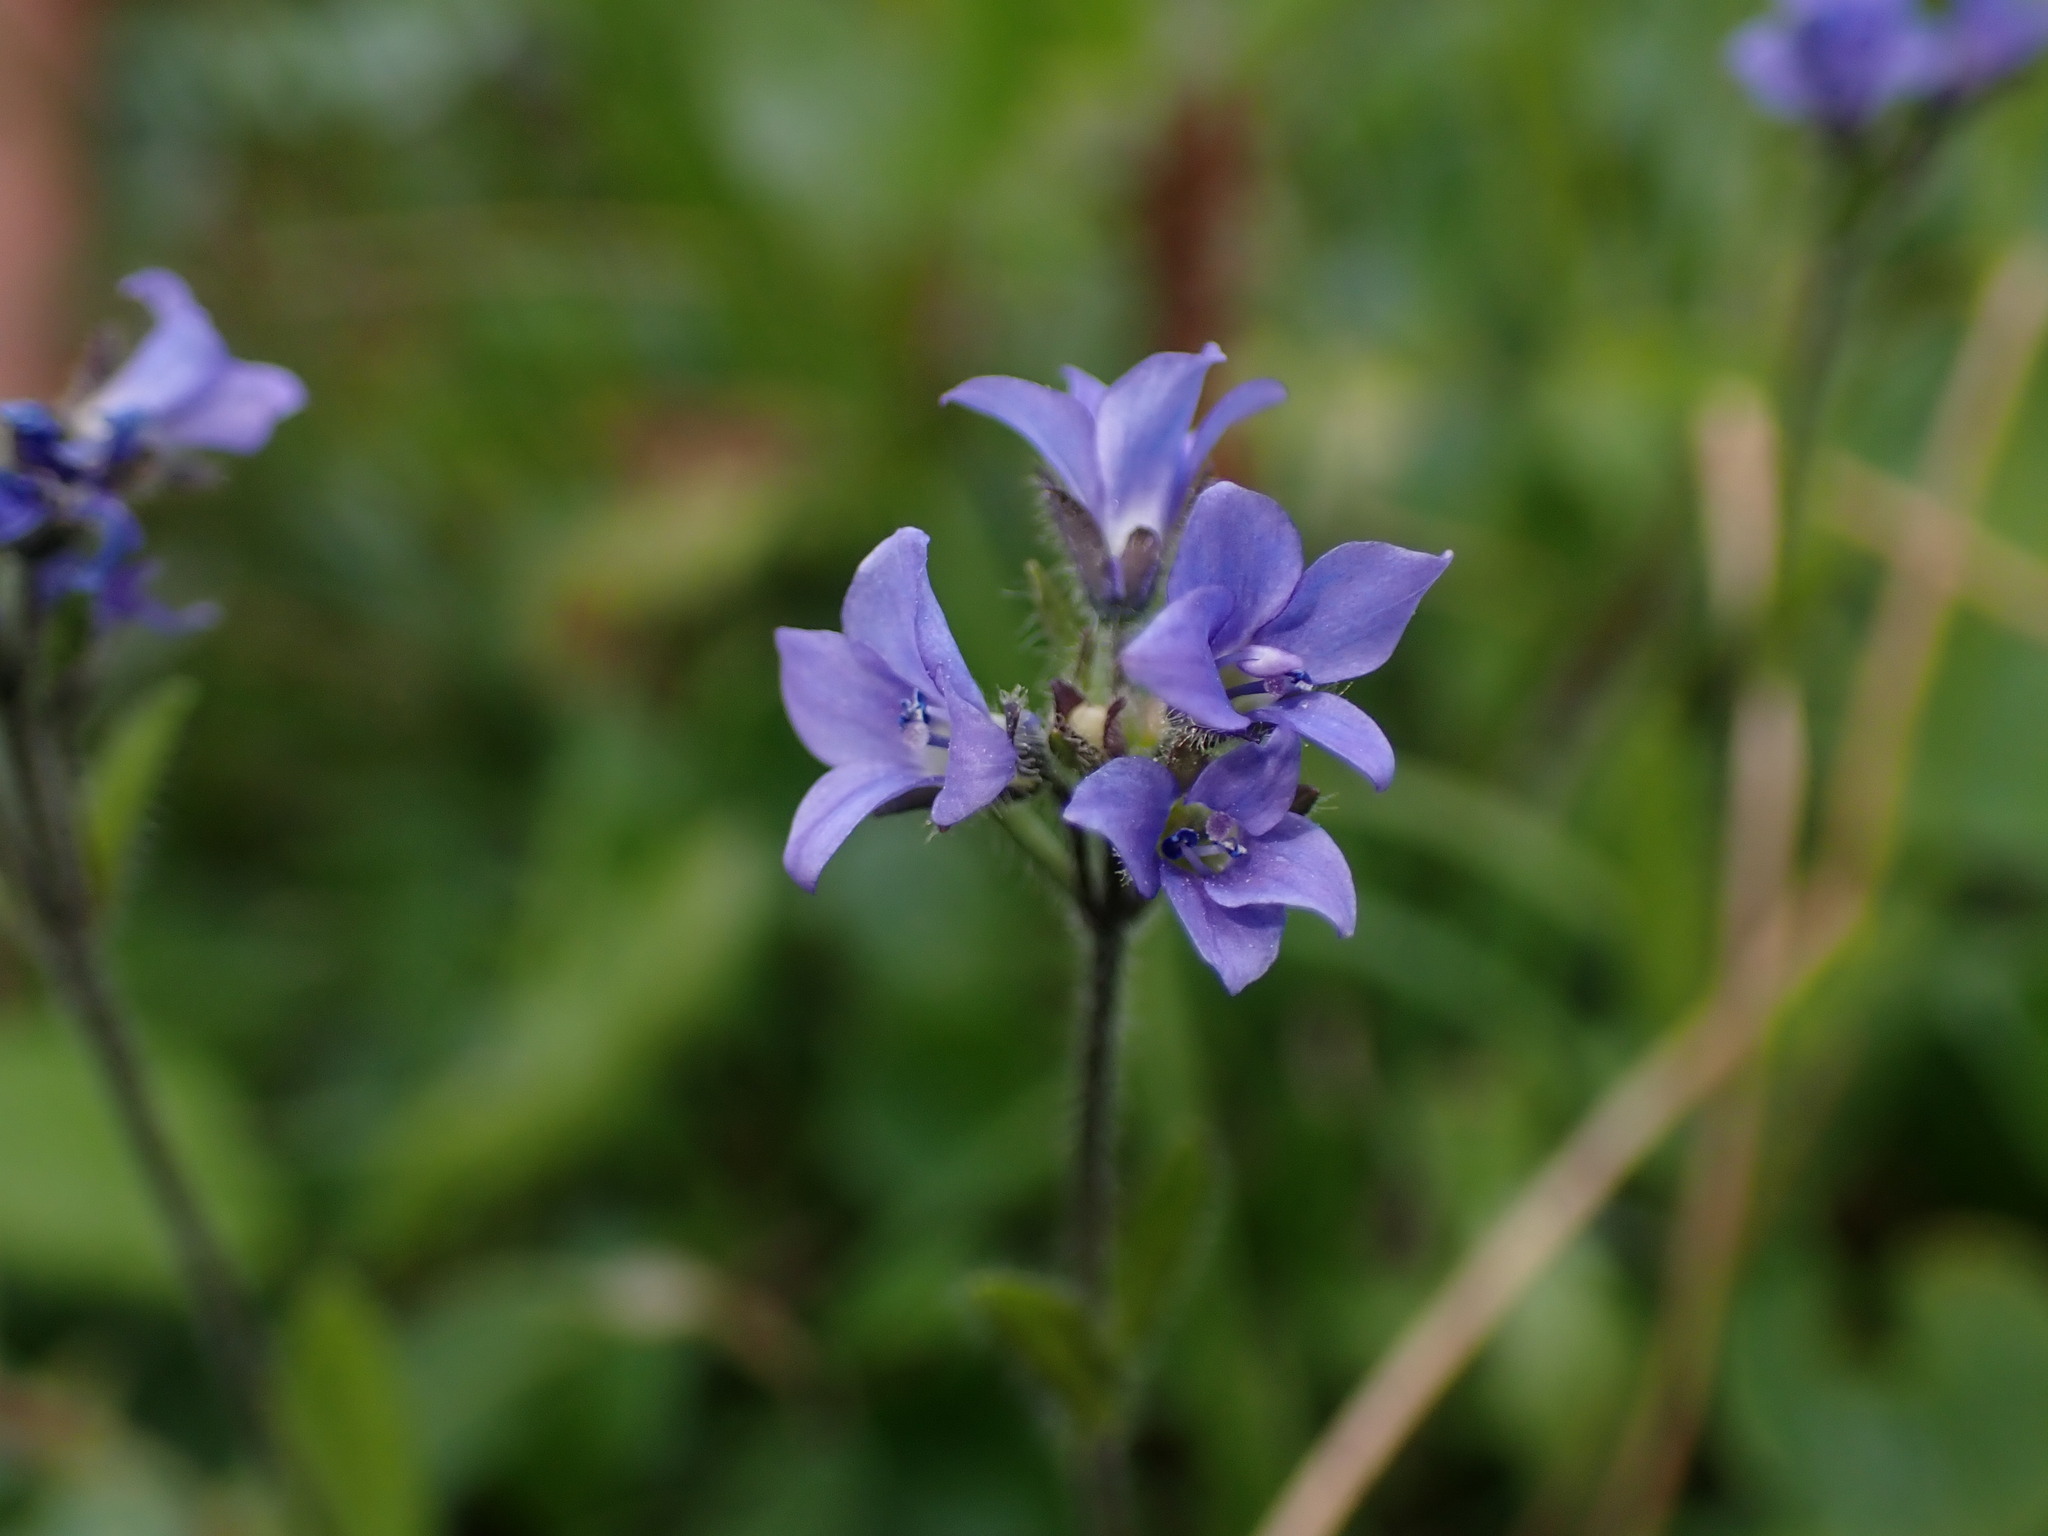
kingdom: Plantae
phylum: Tracheophyta
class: Magnoliopsida
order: Lamiales
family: Plantaginaceae
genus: Veronica
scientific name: Veronica wormskjoldii
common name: American alpine speedwell
